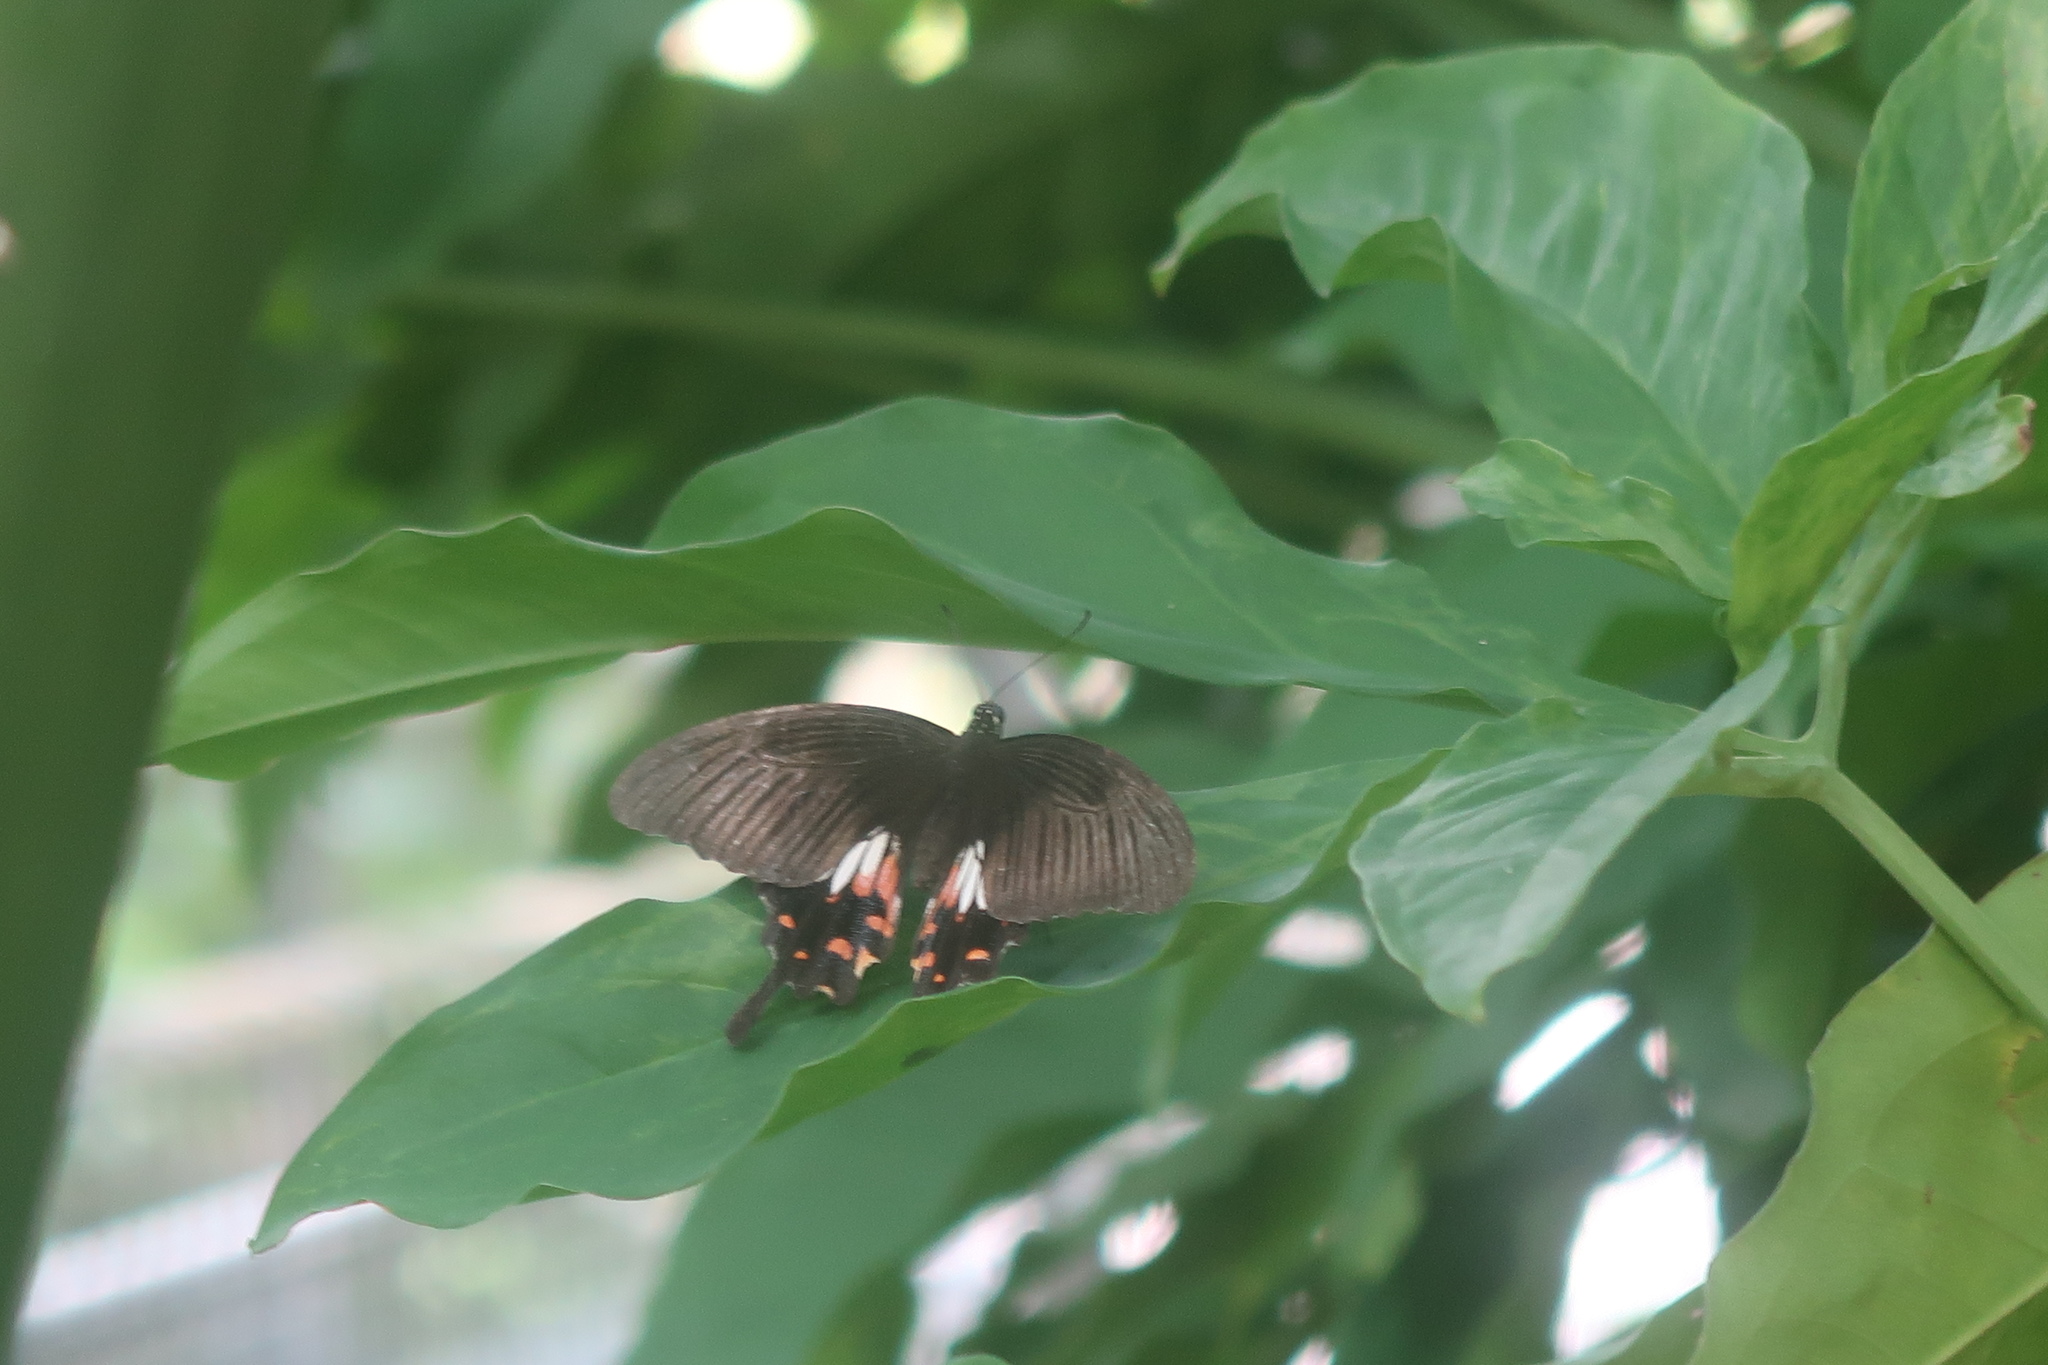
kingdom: Animalia
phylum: Arthropoda
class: Insecta
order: Lepidoptera
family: Papilionidae
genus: Papilio
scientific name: Papilio polytes
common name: Common mormon
